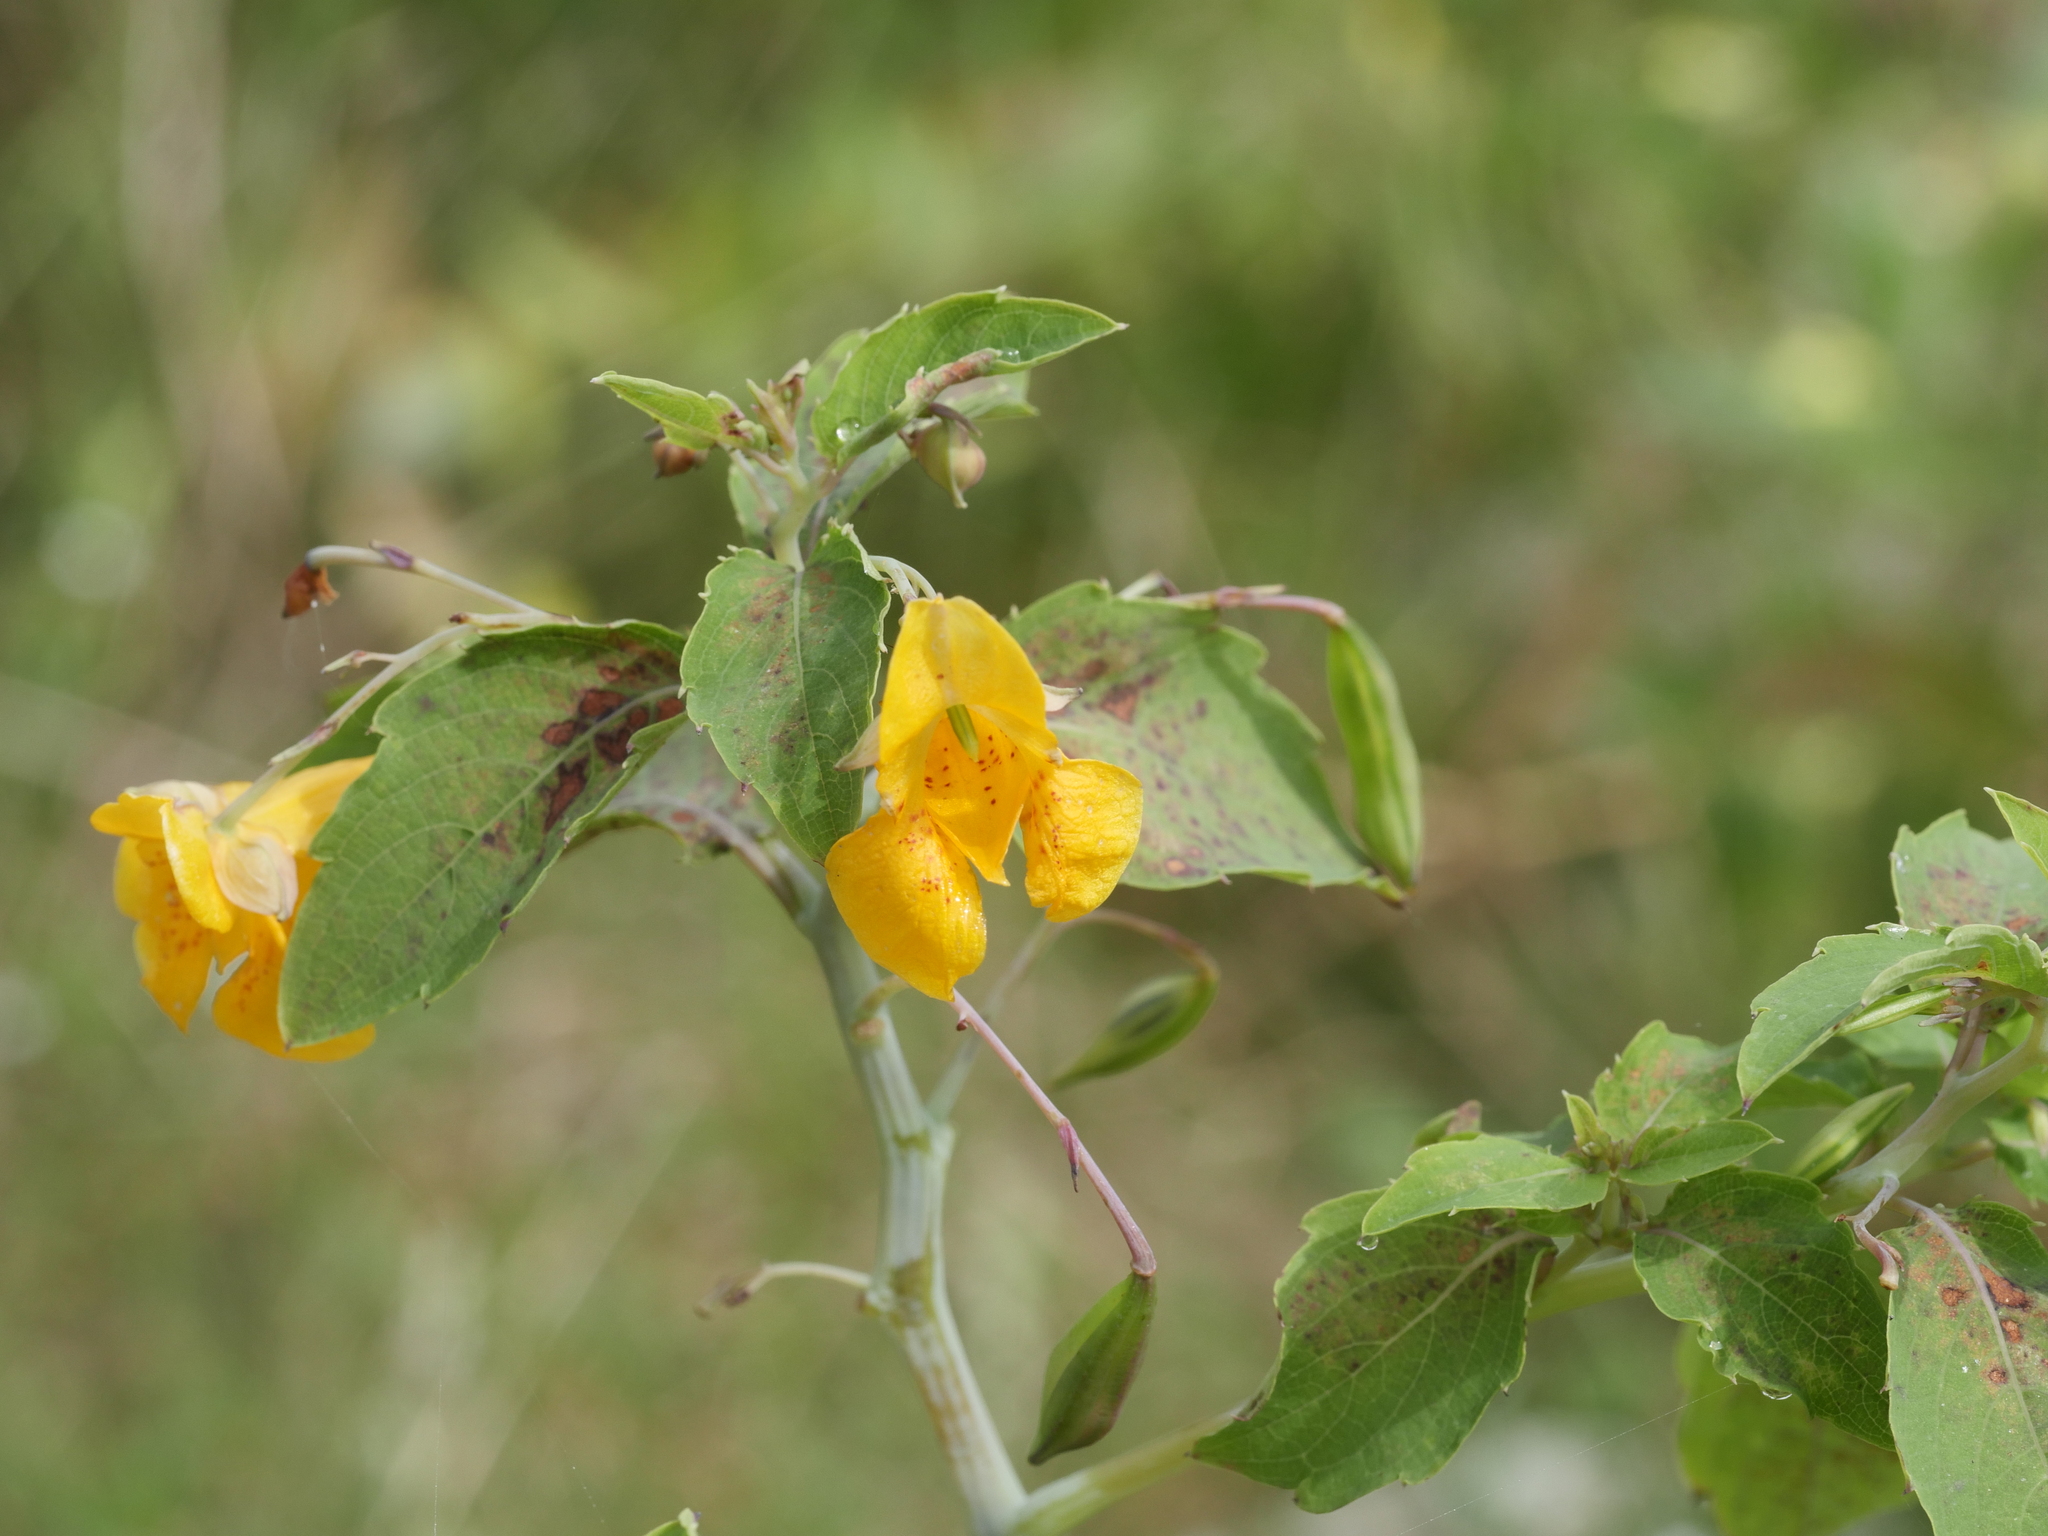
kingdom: Plantae
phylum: Tracheophyta
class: Magnoliopsida
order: Ericales
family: Balsaminaceae
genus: Impatiens
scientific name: Impatiens capensis
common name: Orange balsam
